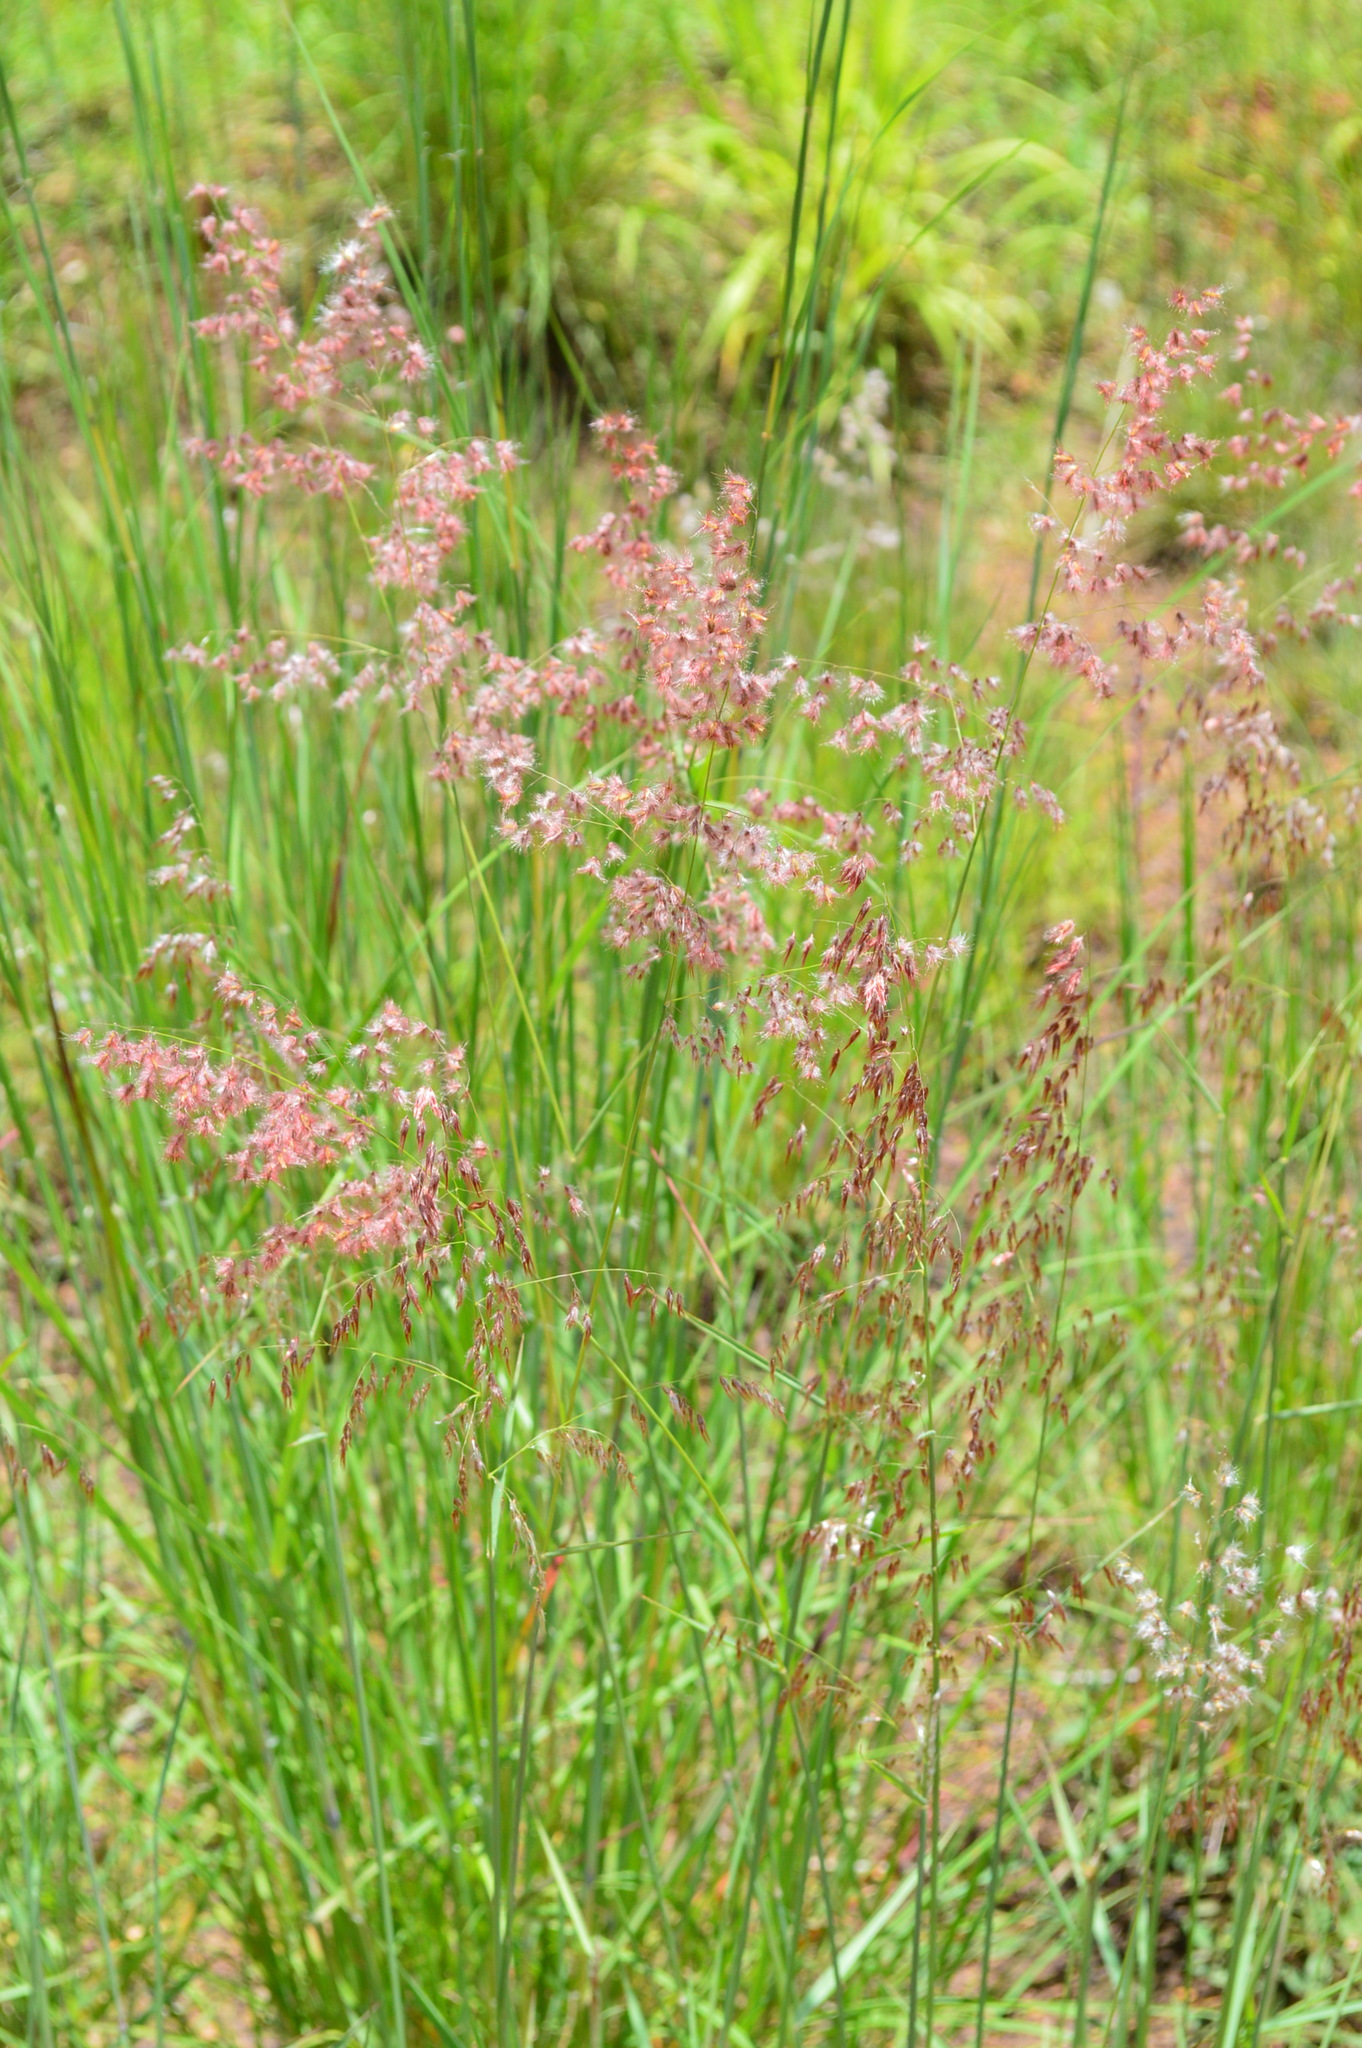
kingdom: Plantae
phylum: Tracheophyta
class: Liliopsida
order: Poales
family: Poaceae
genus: Melinis
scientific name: Melinis repens
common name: Rose natal grass
